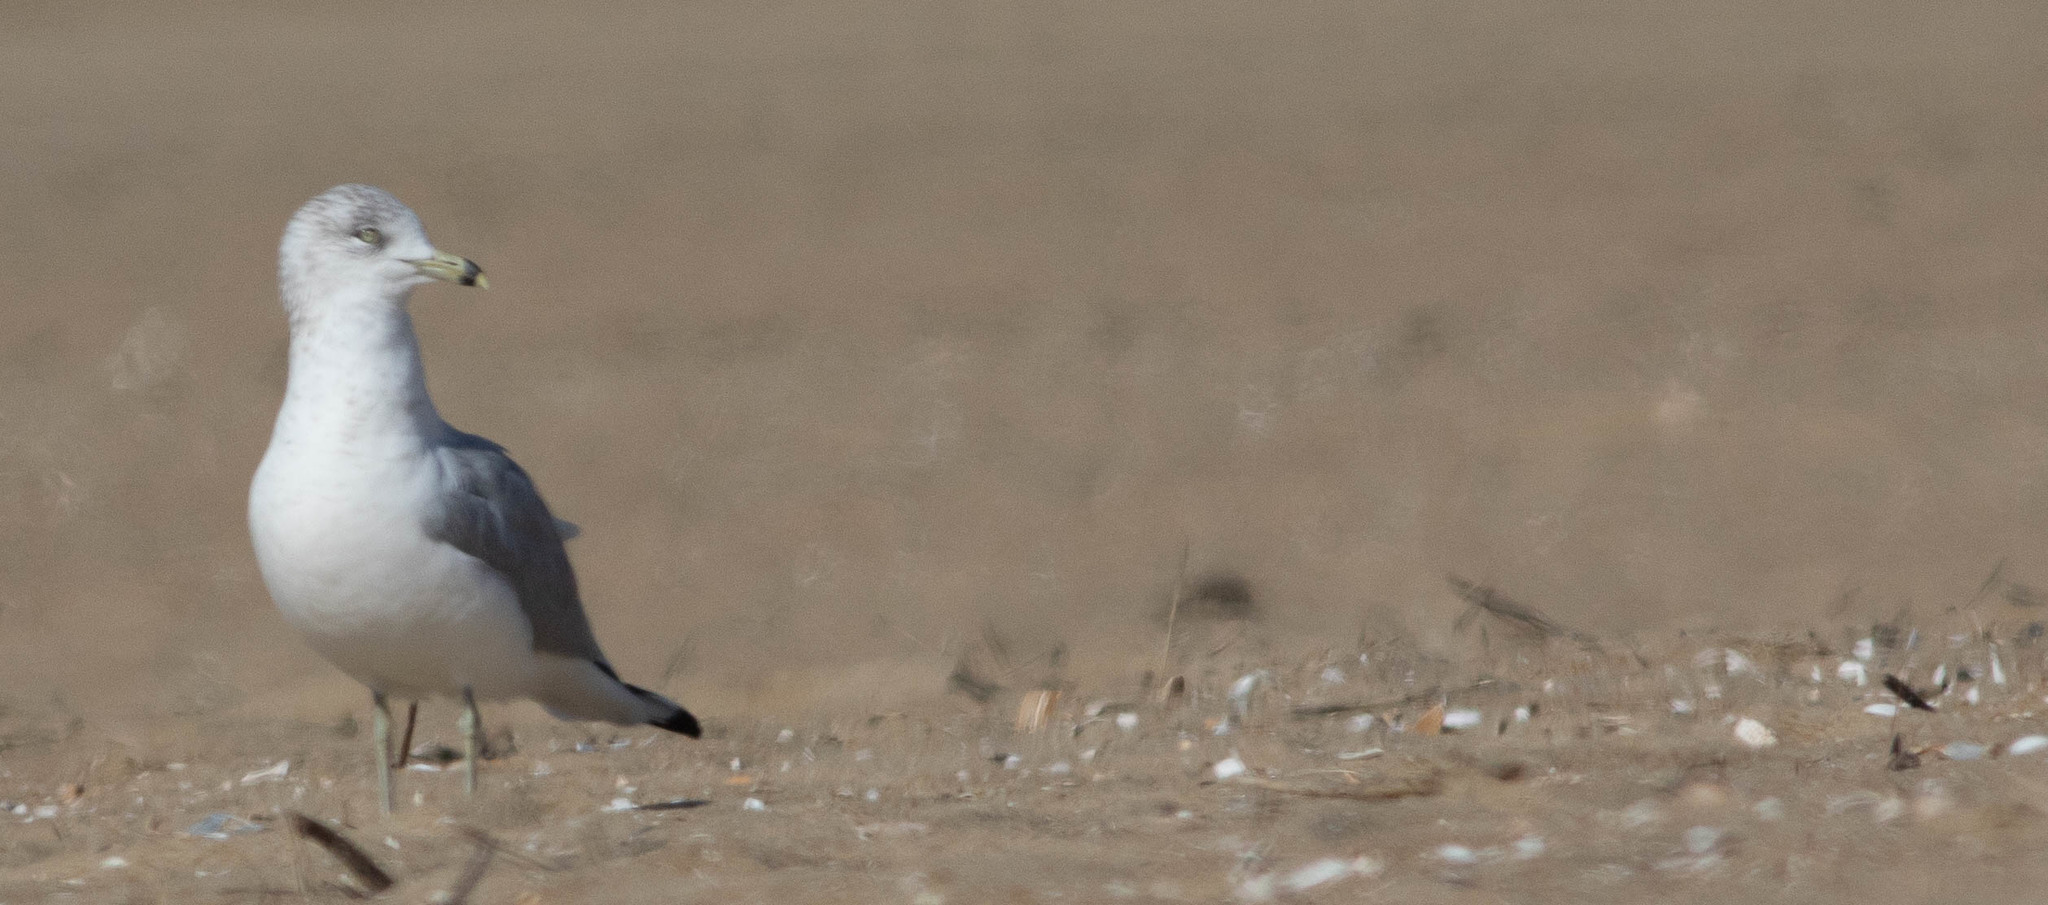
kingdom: Animalia
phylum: Chordata
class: Aves
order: Charadriiformes
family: Laridae
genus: Larus
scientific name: Larus delawarensis
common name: Ring-billed gull
